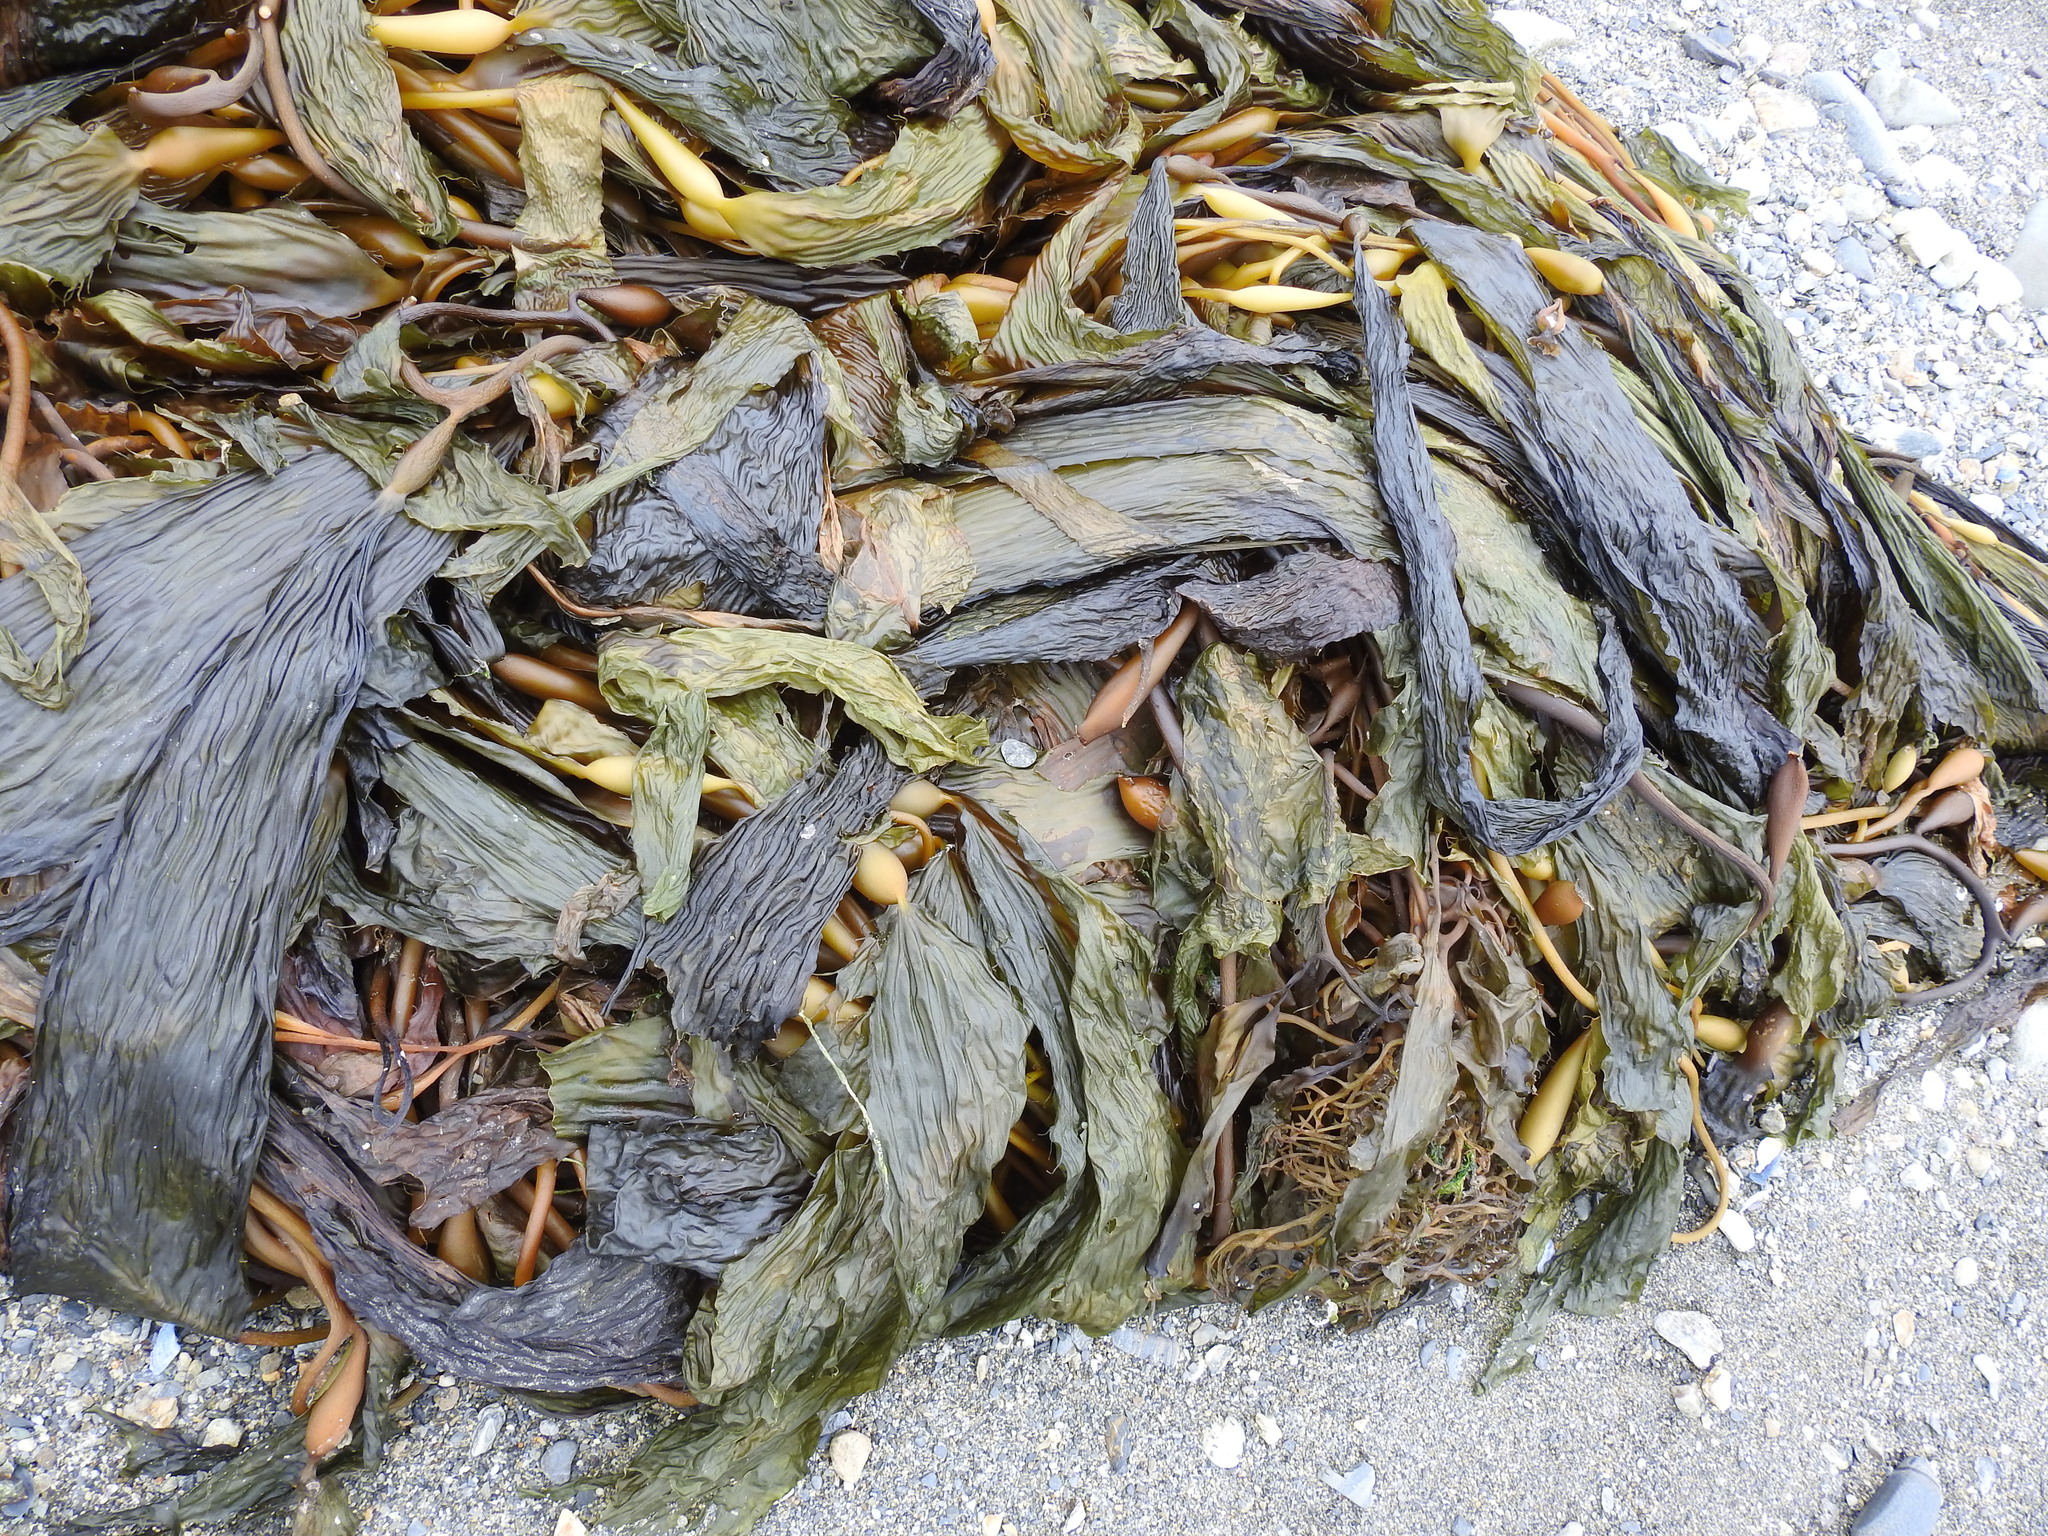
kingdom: Chromista
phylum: Ochrophyta
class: Phaeophyceae
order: Laminariales
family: Laminariaceae
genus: Macrocystis
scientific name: Macrocystis pyrifera
